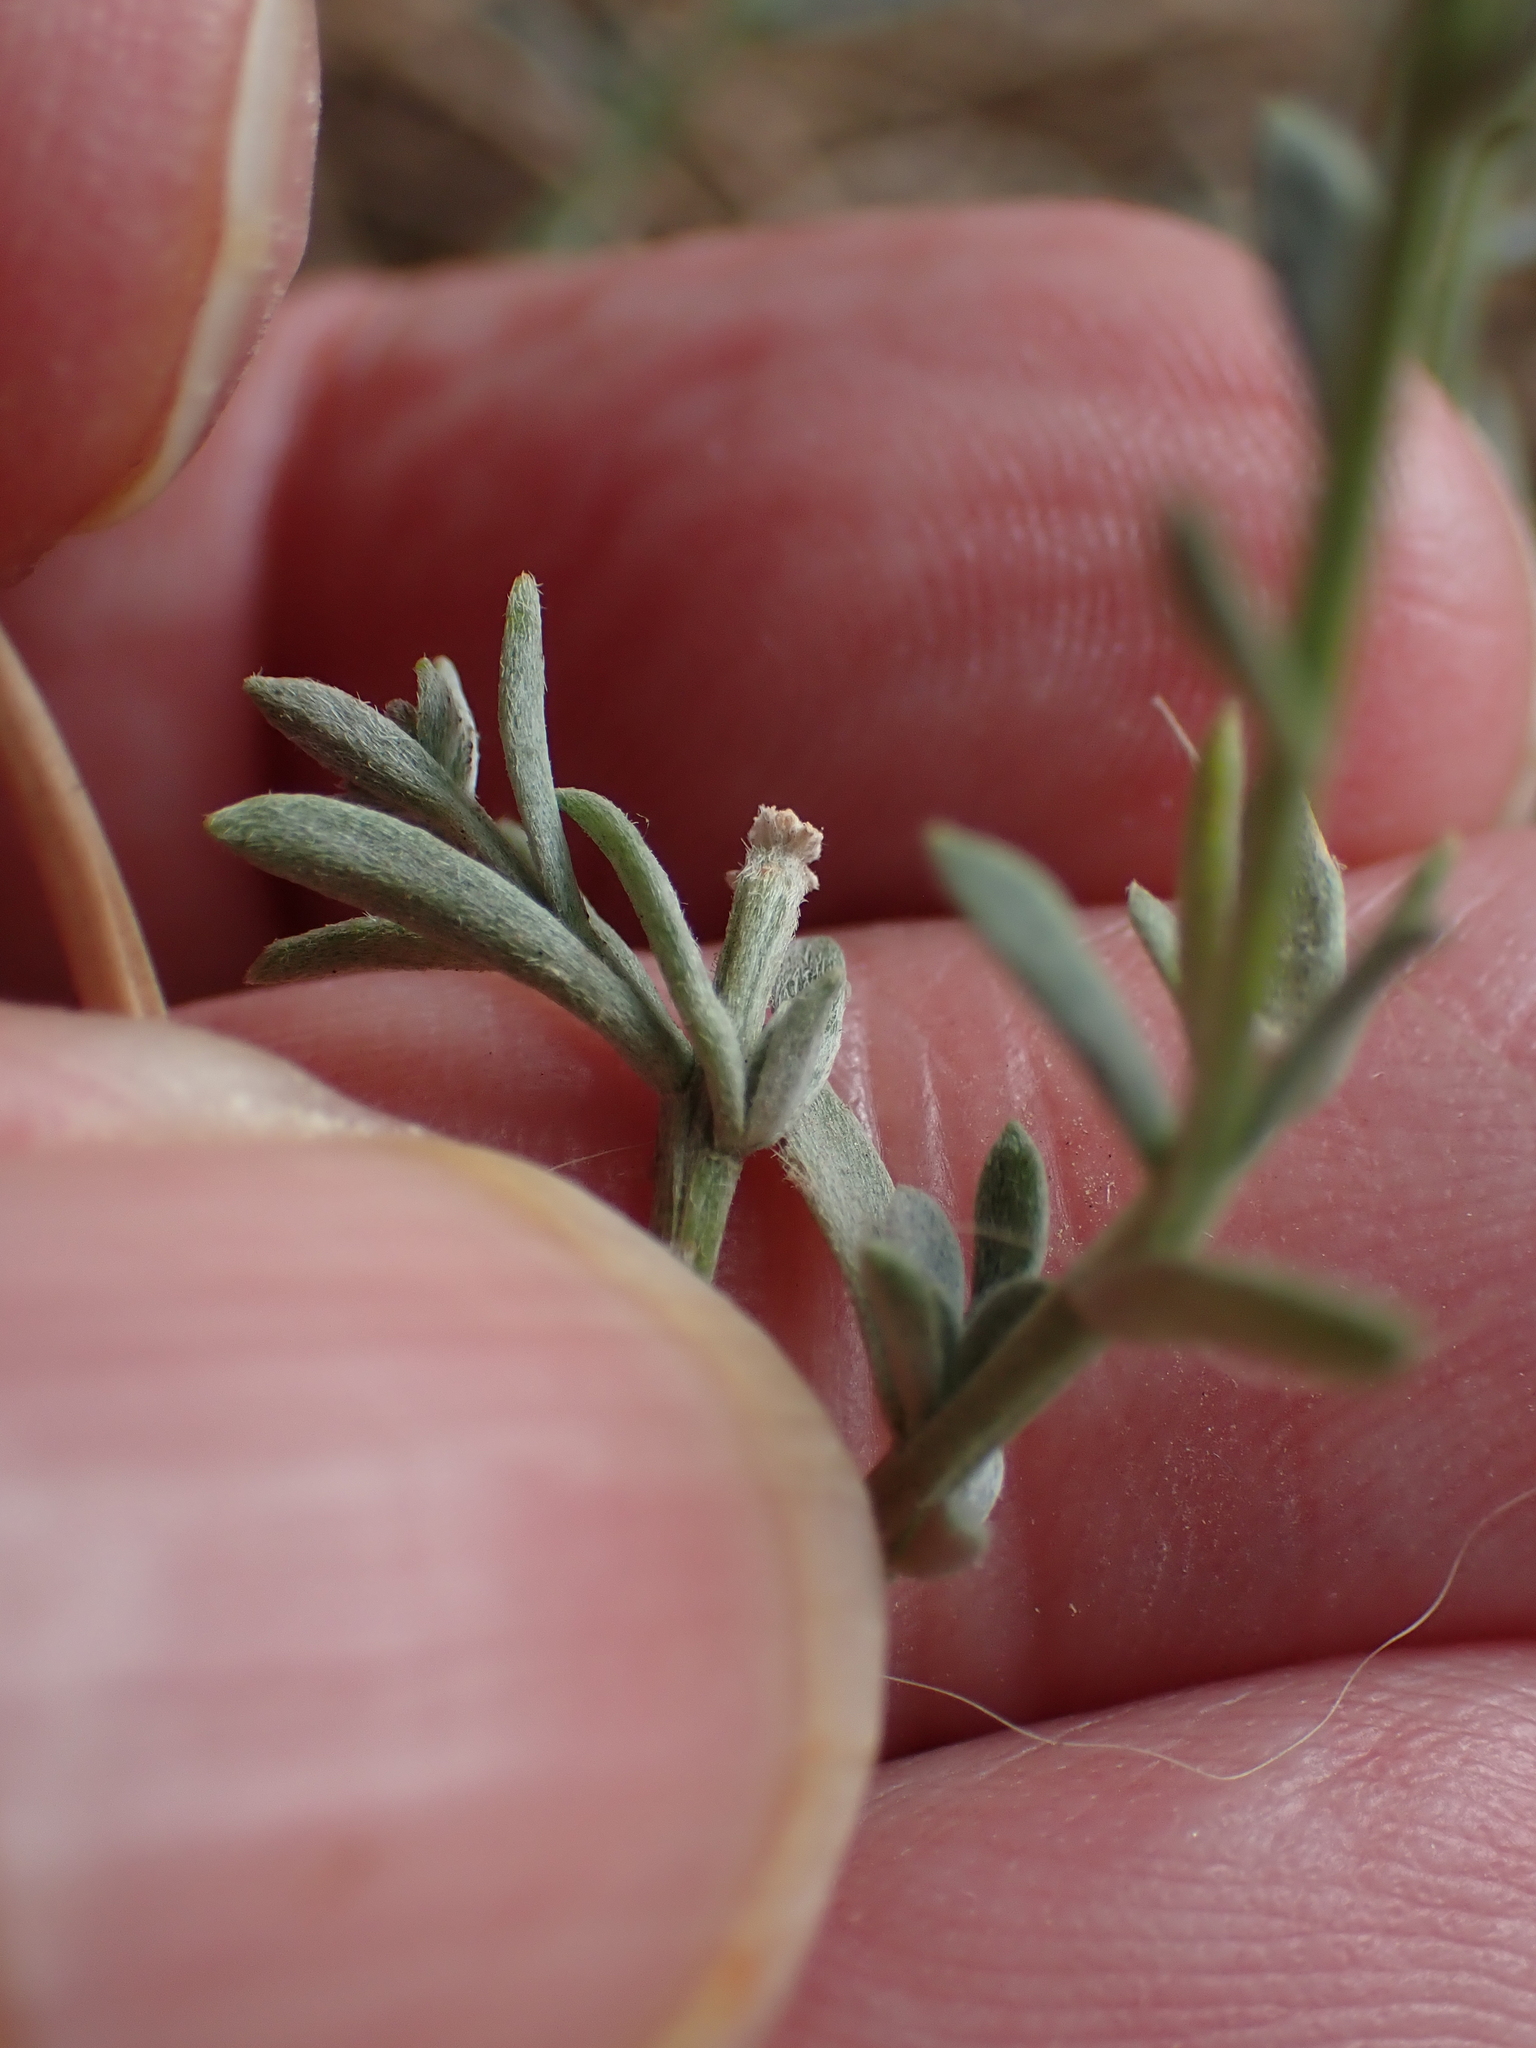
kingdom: Plantae
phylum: Tracheophyta
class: Magnoliopsida
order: Brassicales
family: Brassicaceae
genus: Lobularia
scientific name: Lobularia maritima
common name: Sweet alison
